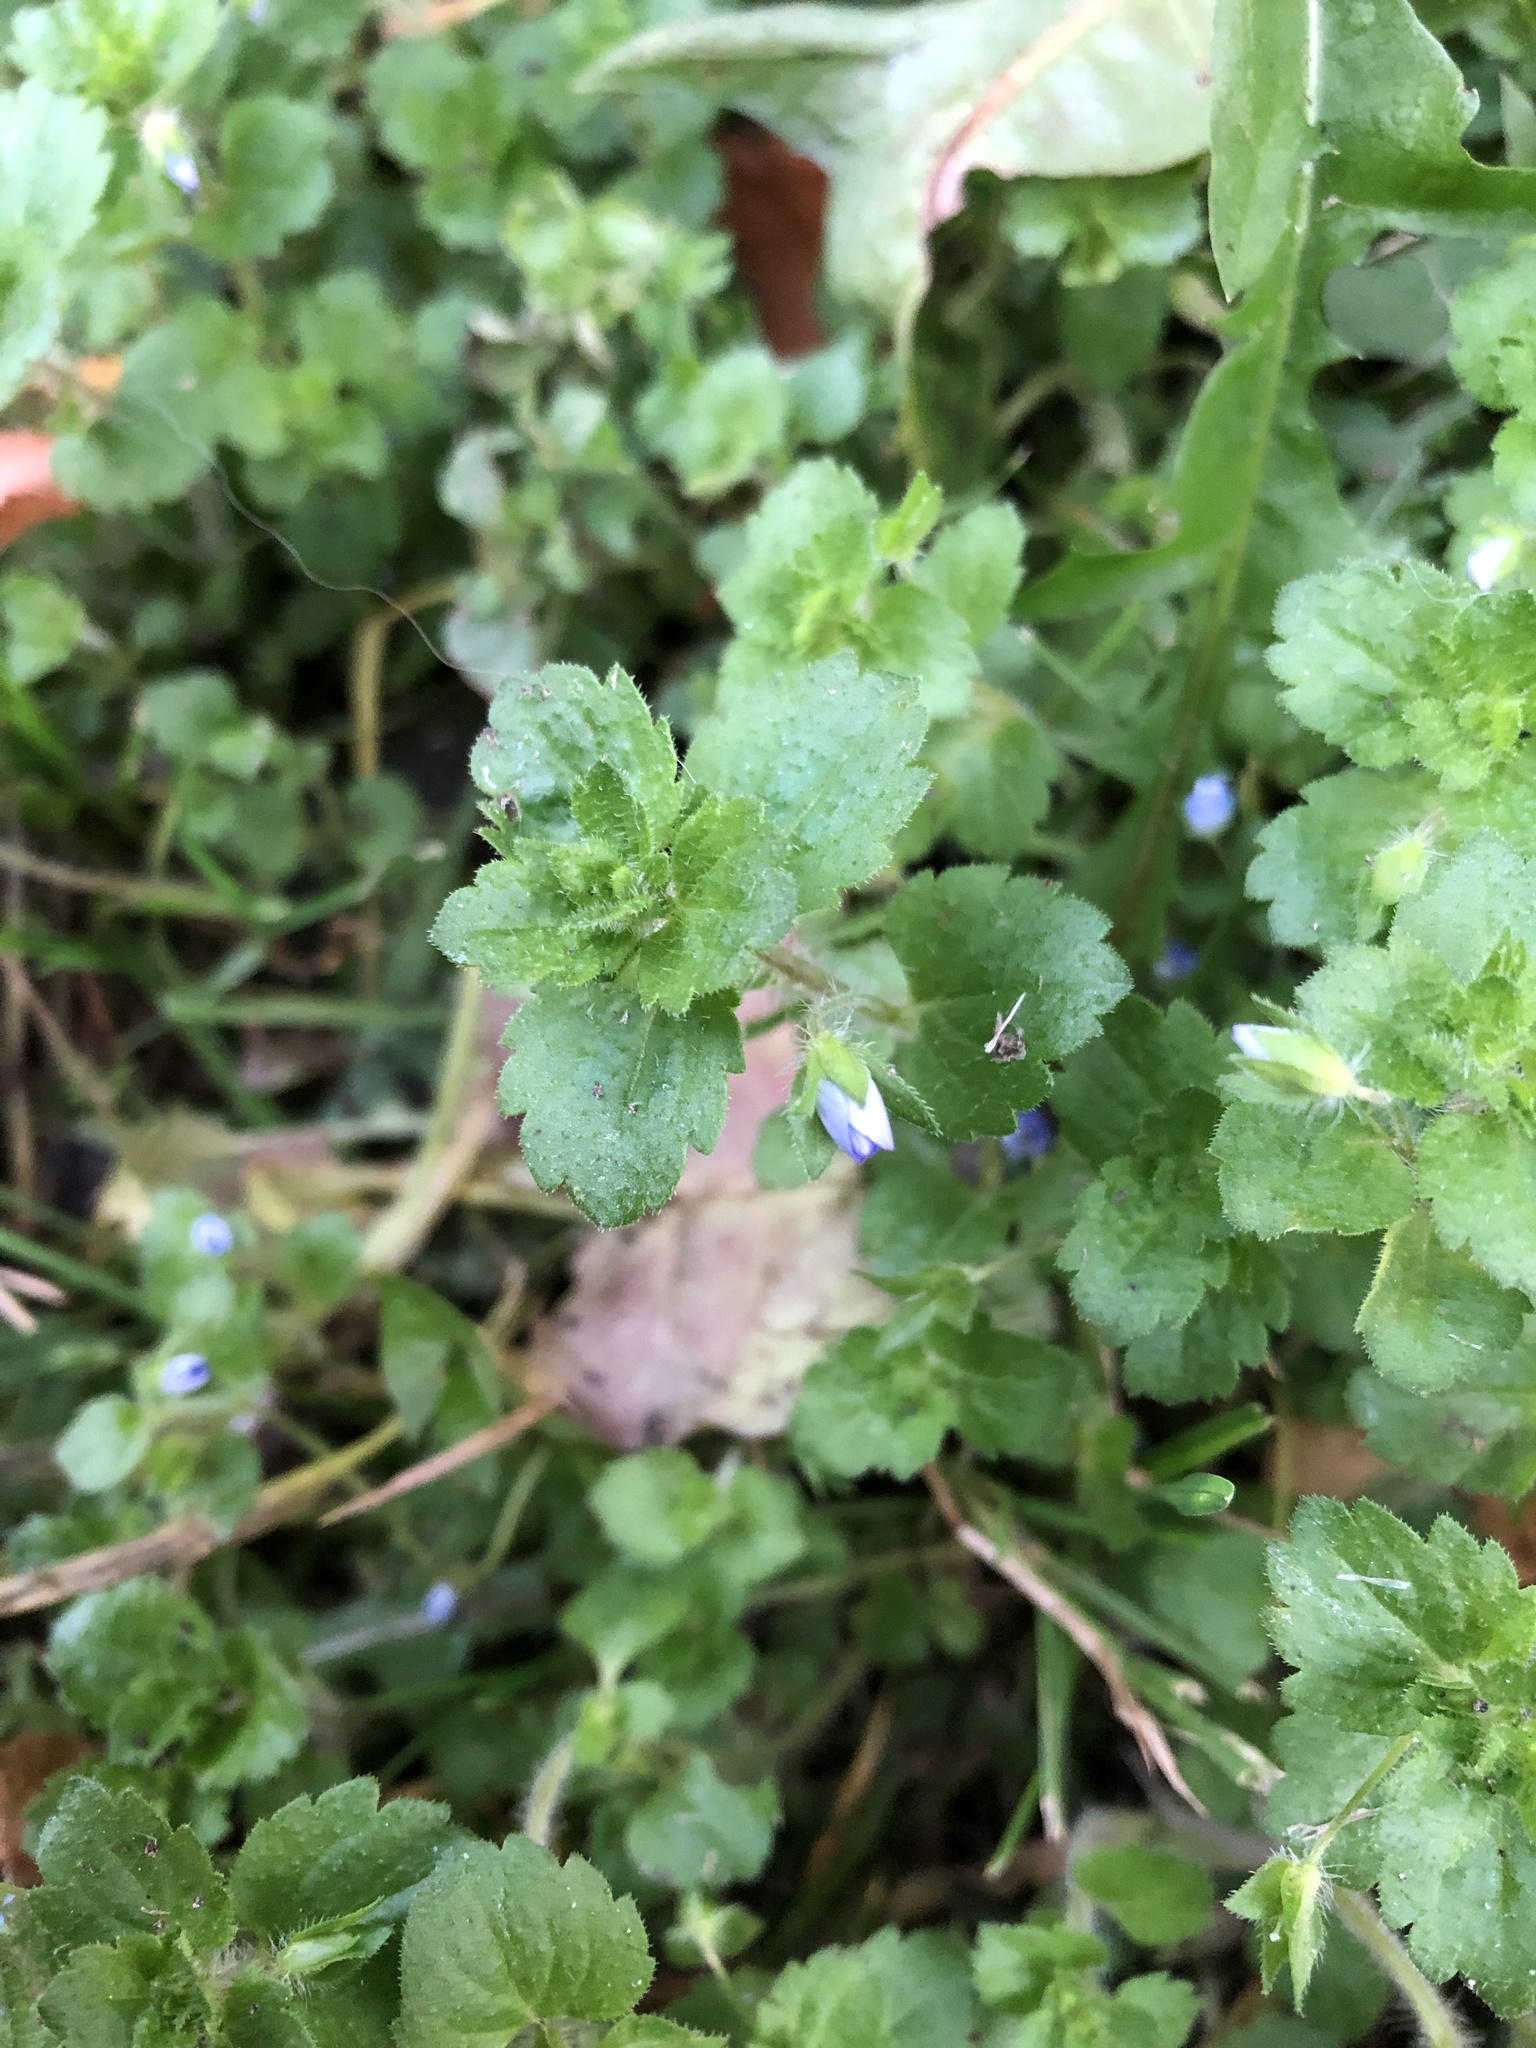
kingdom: Plantae
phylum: Tracheophyta
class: Magnoliopsida
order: Lamiales
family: Plantaginaceae
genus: Veronica
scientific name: Veronica persica
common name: Common field-speedwell
